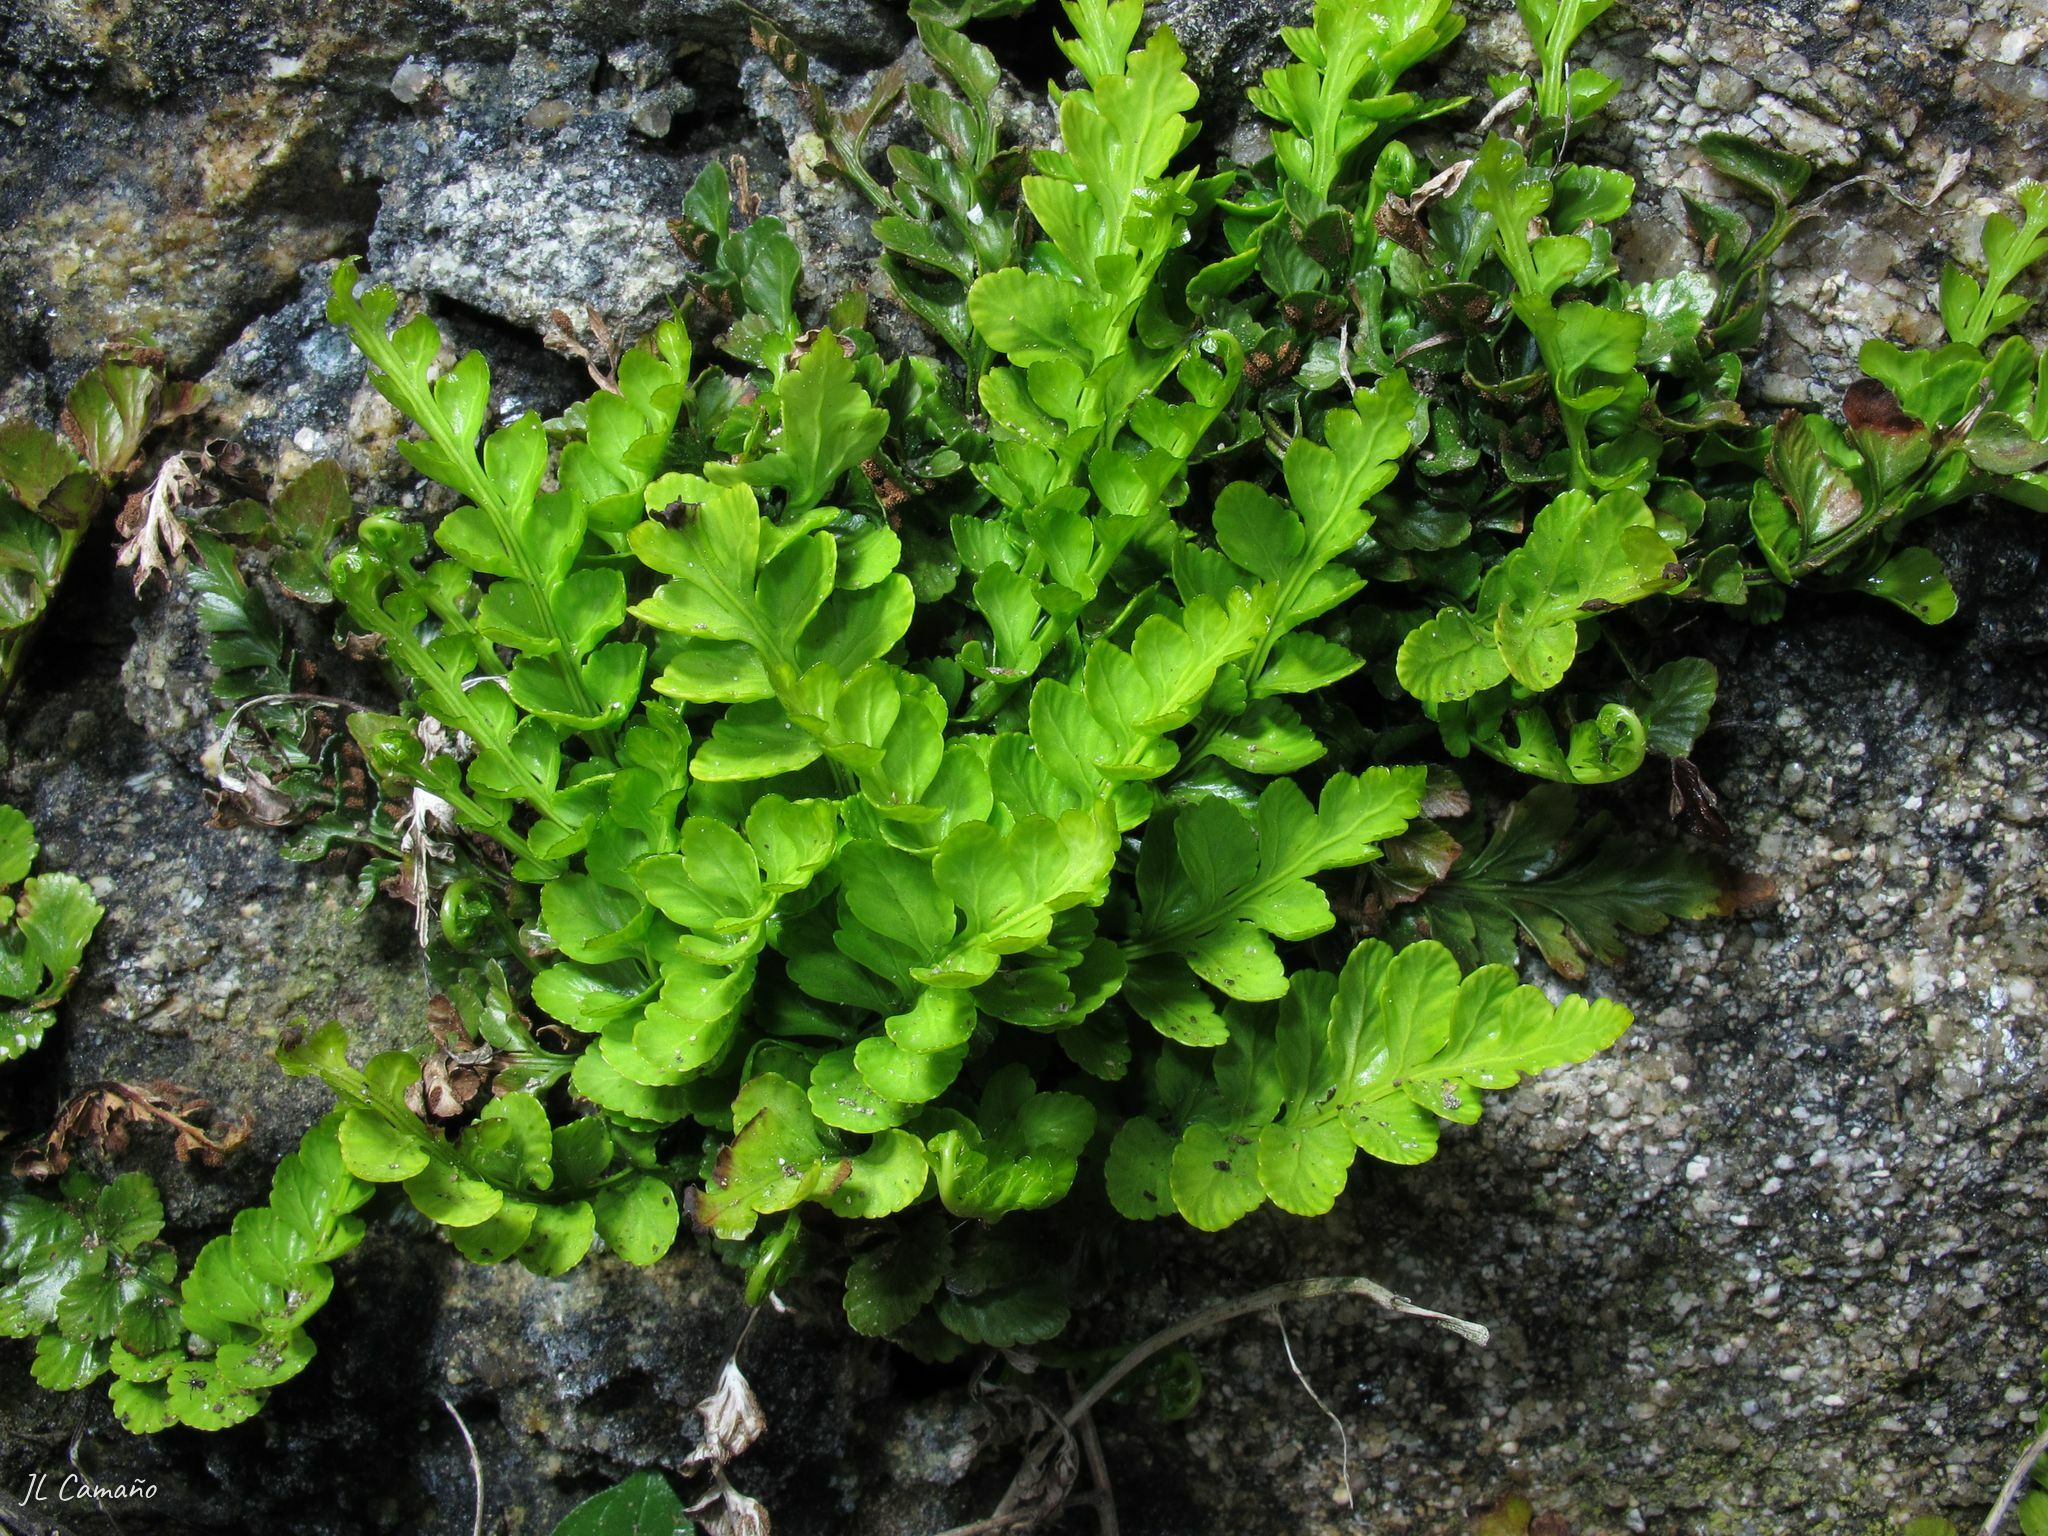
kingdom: Plantae
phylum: Tracheophyta
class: Polypodiopsida
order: Polypodiales
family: Aspleniaceae
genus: Asplenium
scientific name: Asplenium marinum
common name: Sea spleenwort
